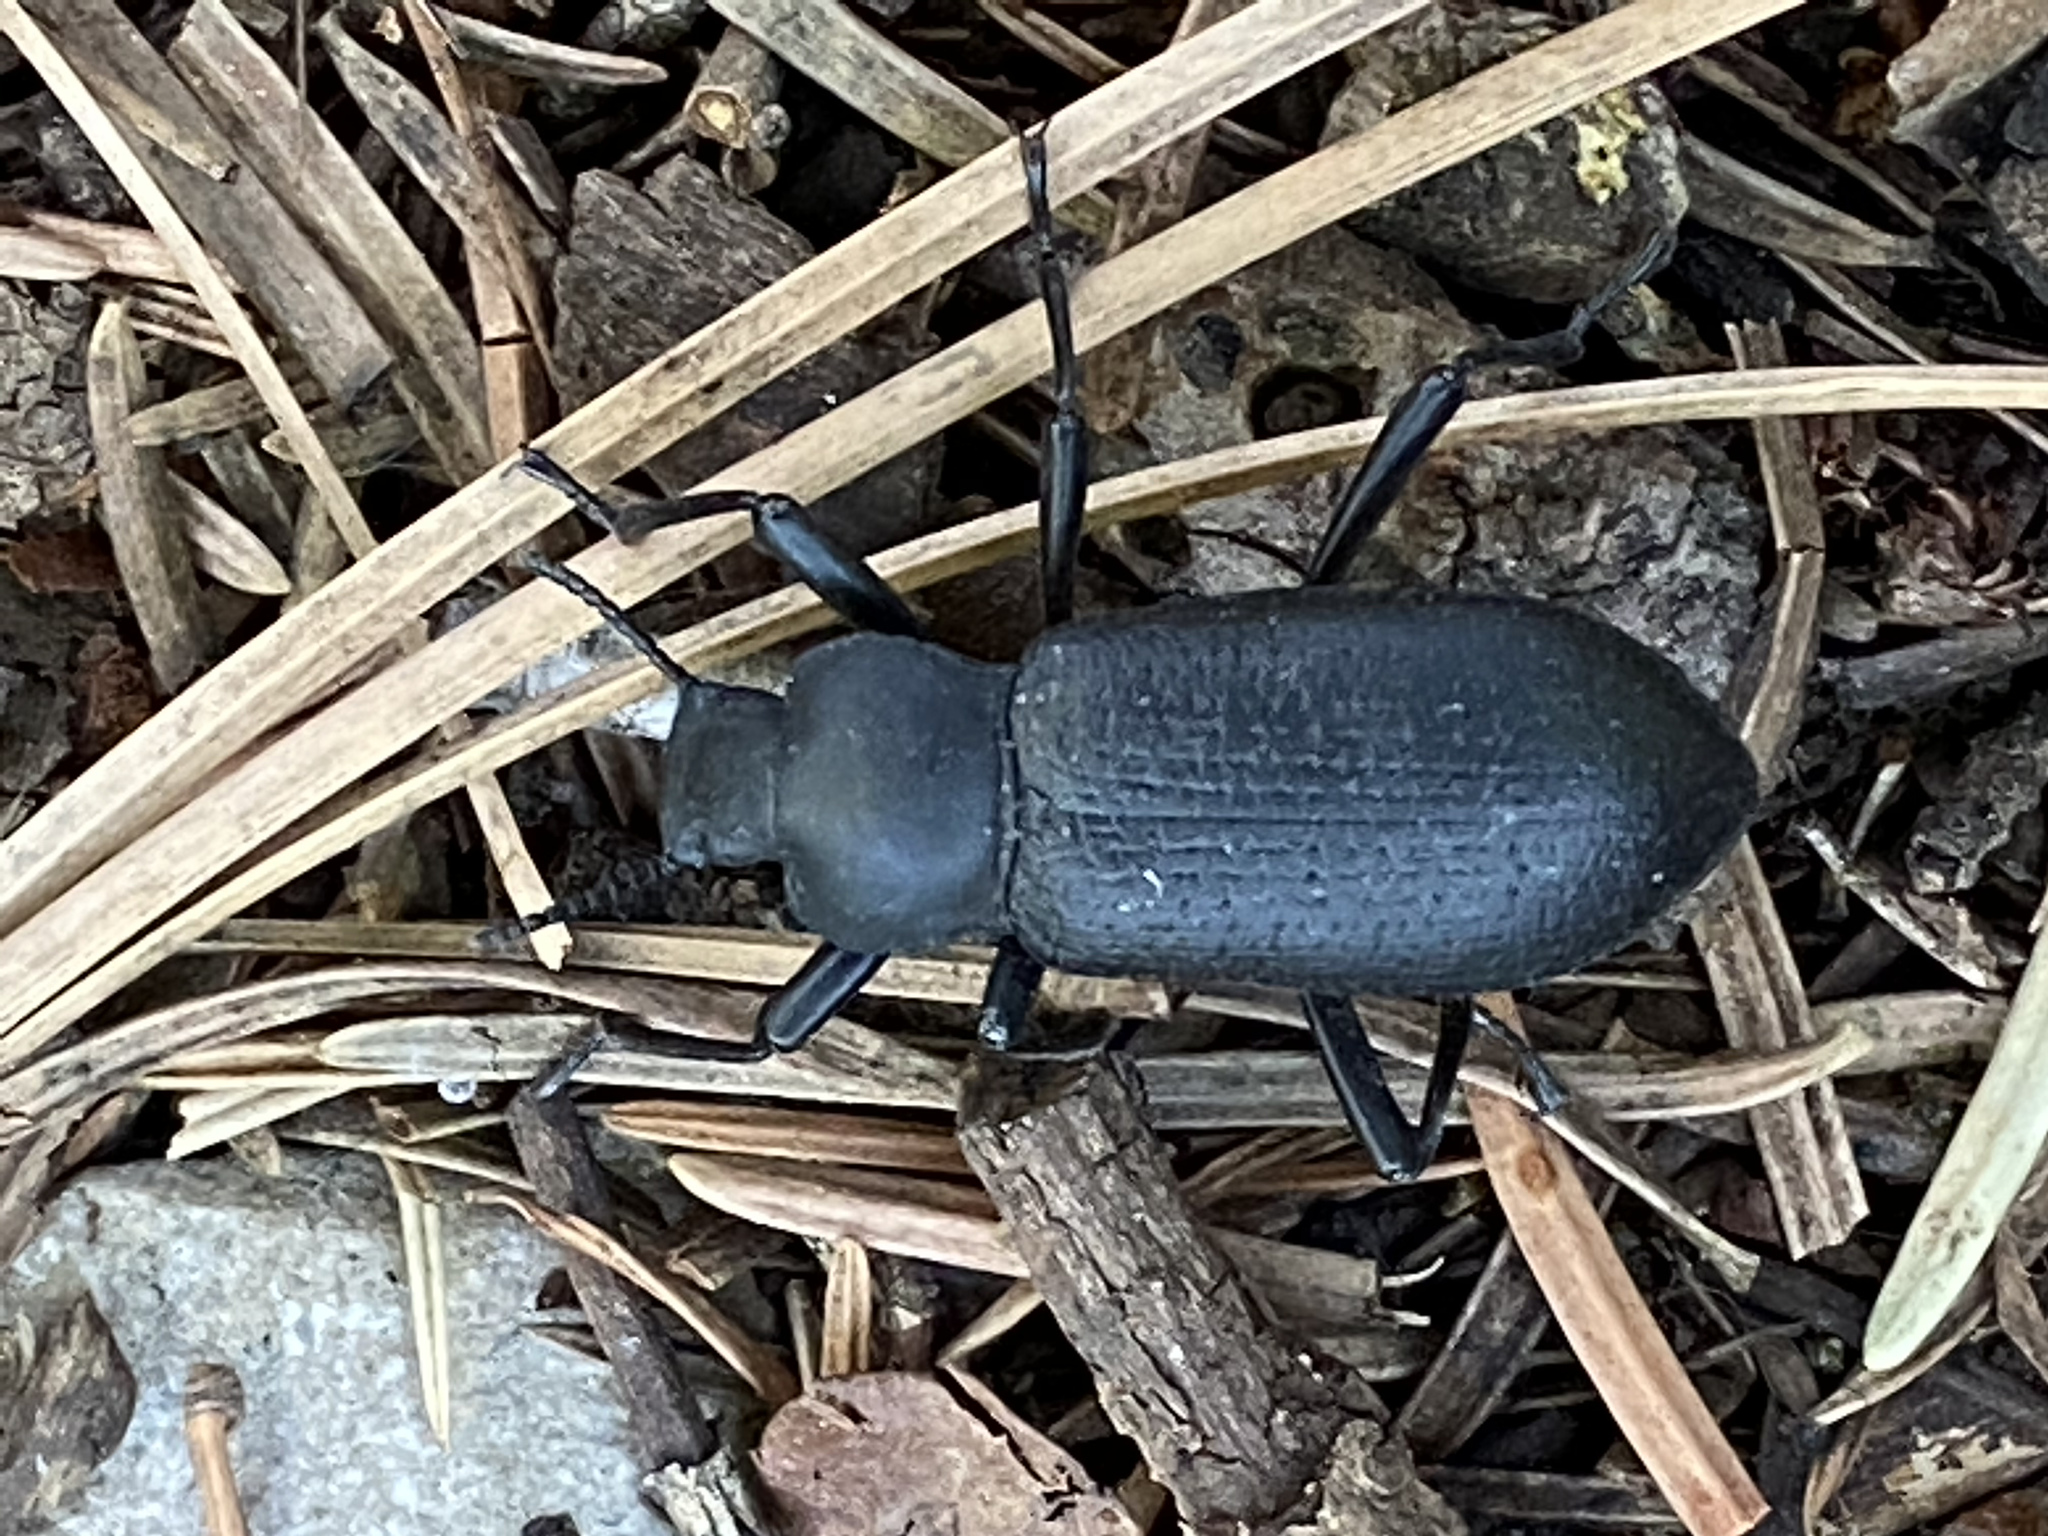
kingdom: Animalia
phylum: Arthropoda
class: Insecta
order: Coleoptera
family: Tenebrionidae
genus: Iphthiminus
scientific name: Iphthiminus lewisii
